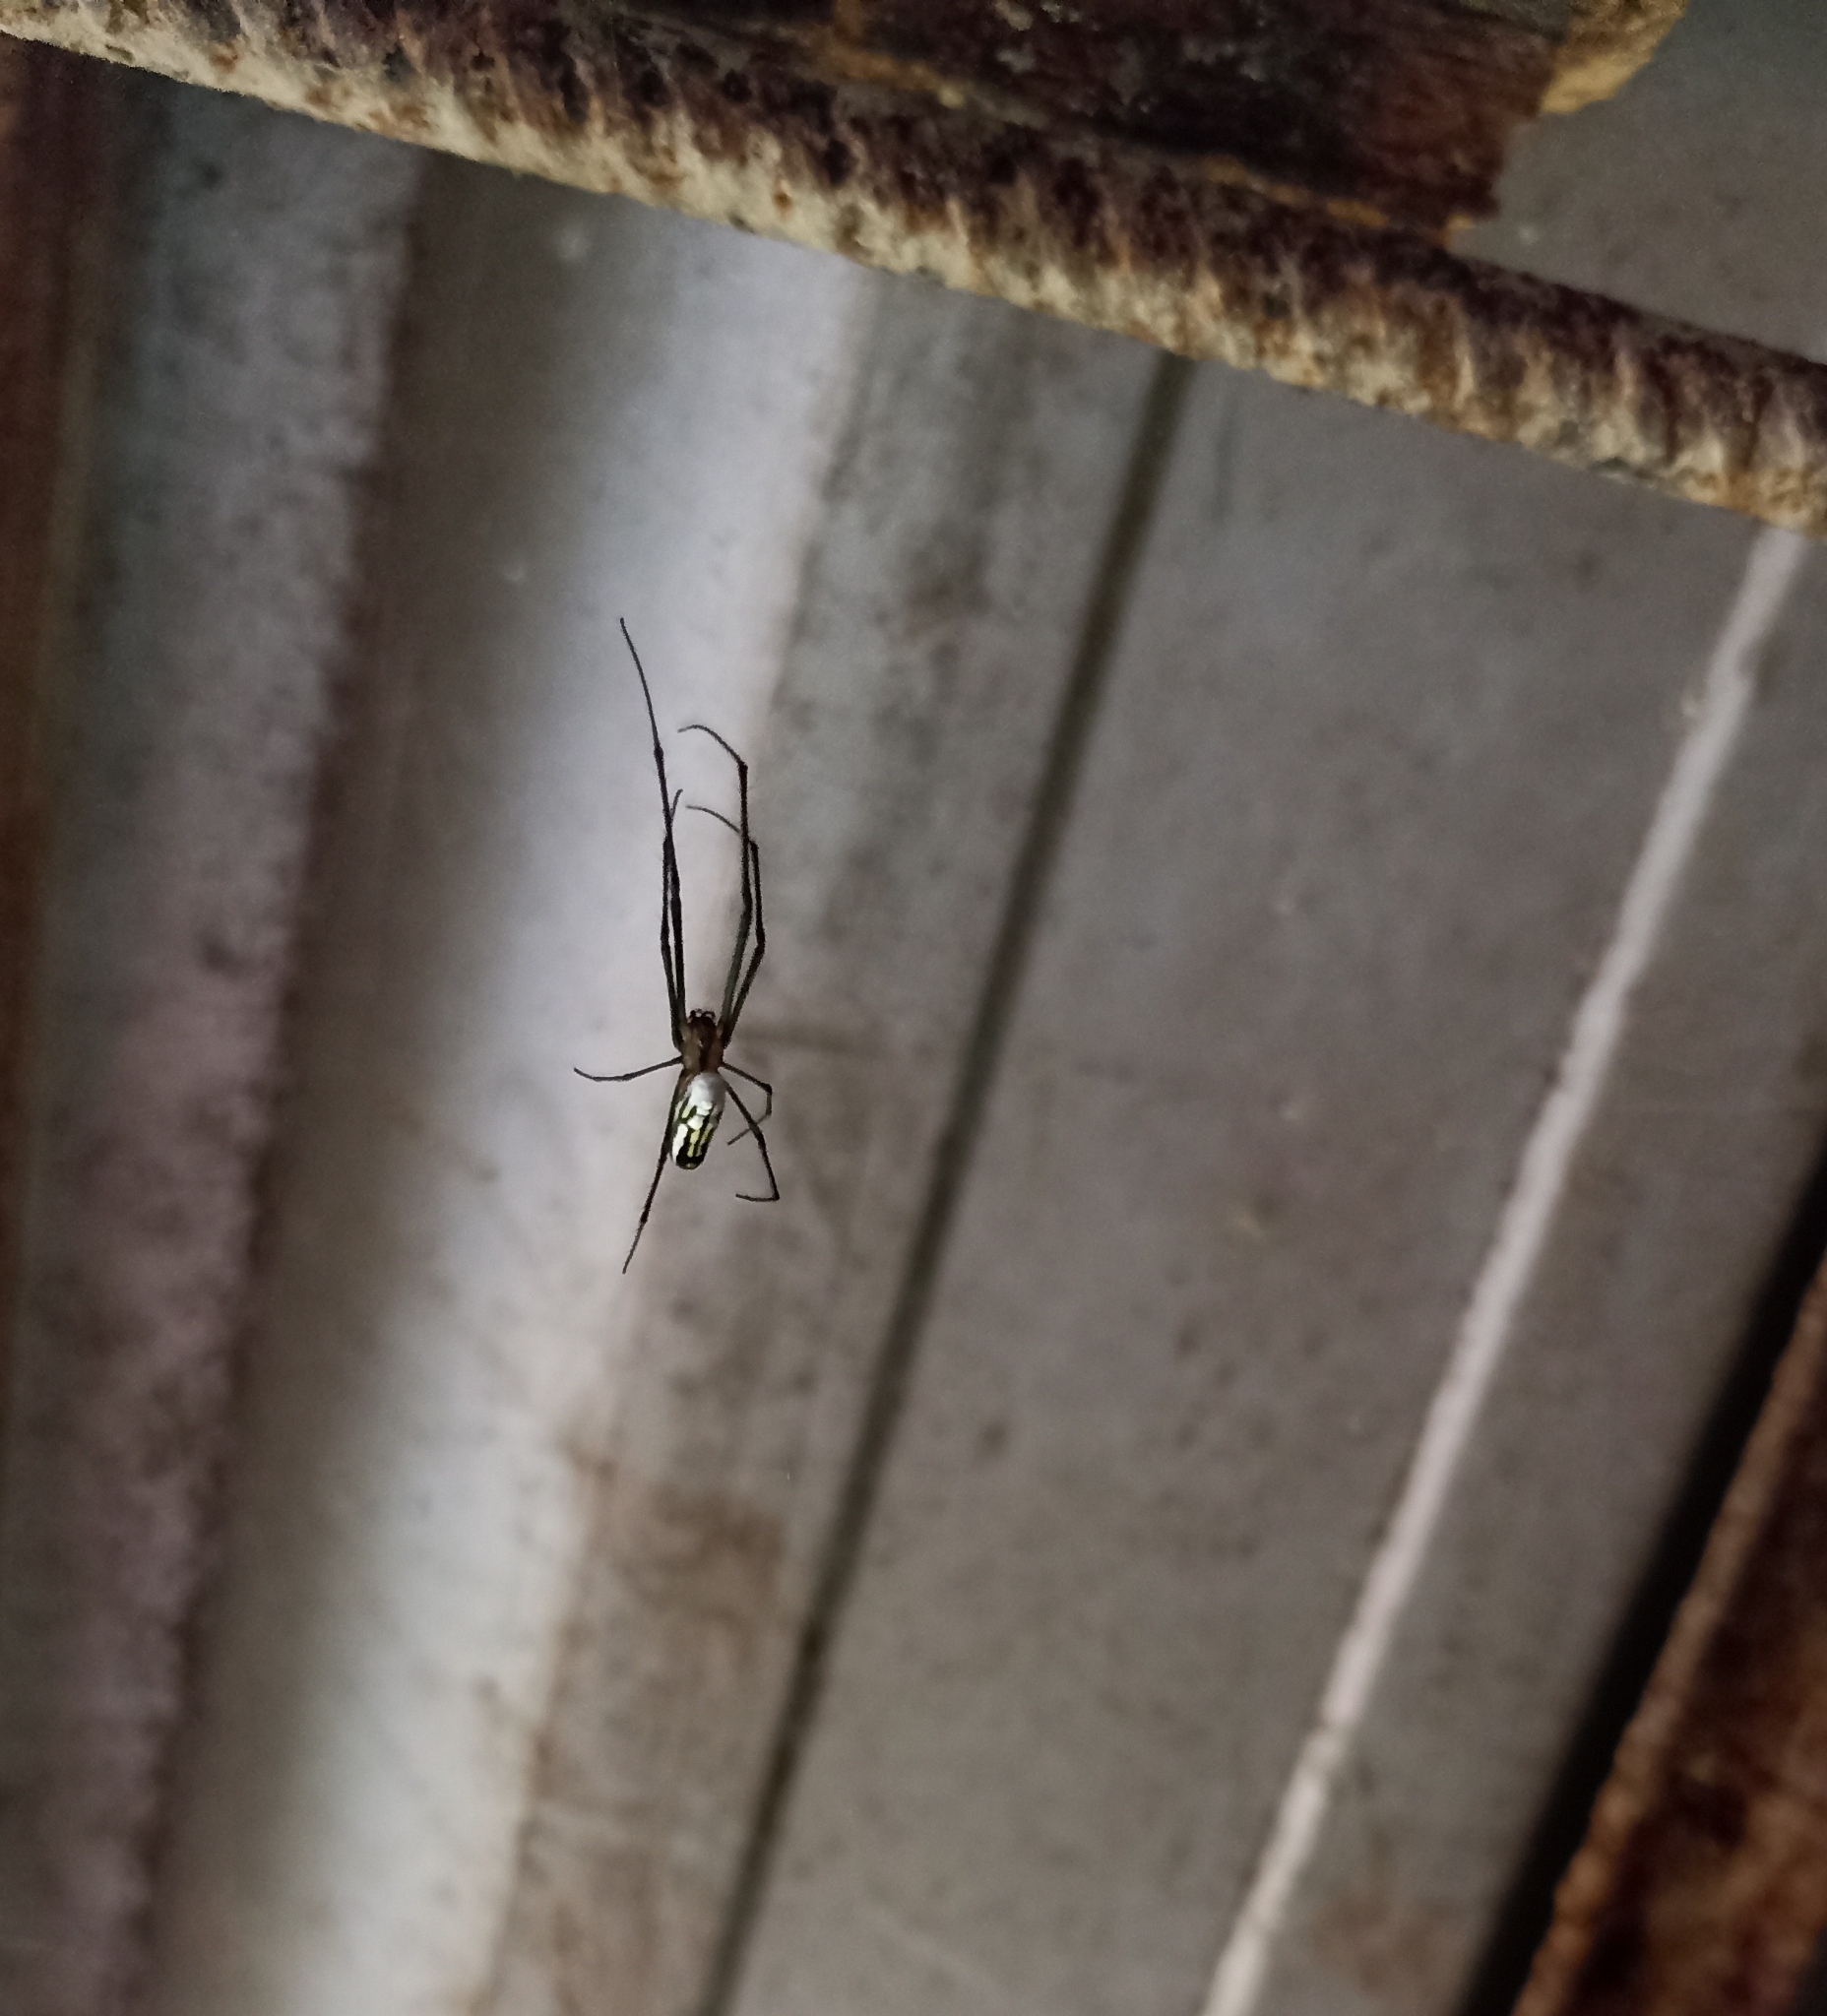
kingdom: Animalia
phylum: Arthropoda
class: Arachnida
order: Araneae
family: Tetragnathidae
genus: Leucauge
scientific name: Leucauge argyra
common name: Longjawed orb weavers
